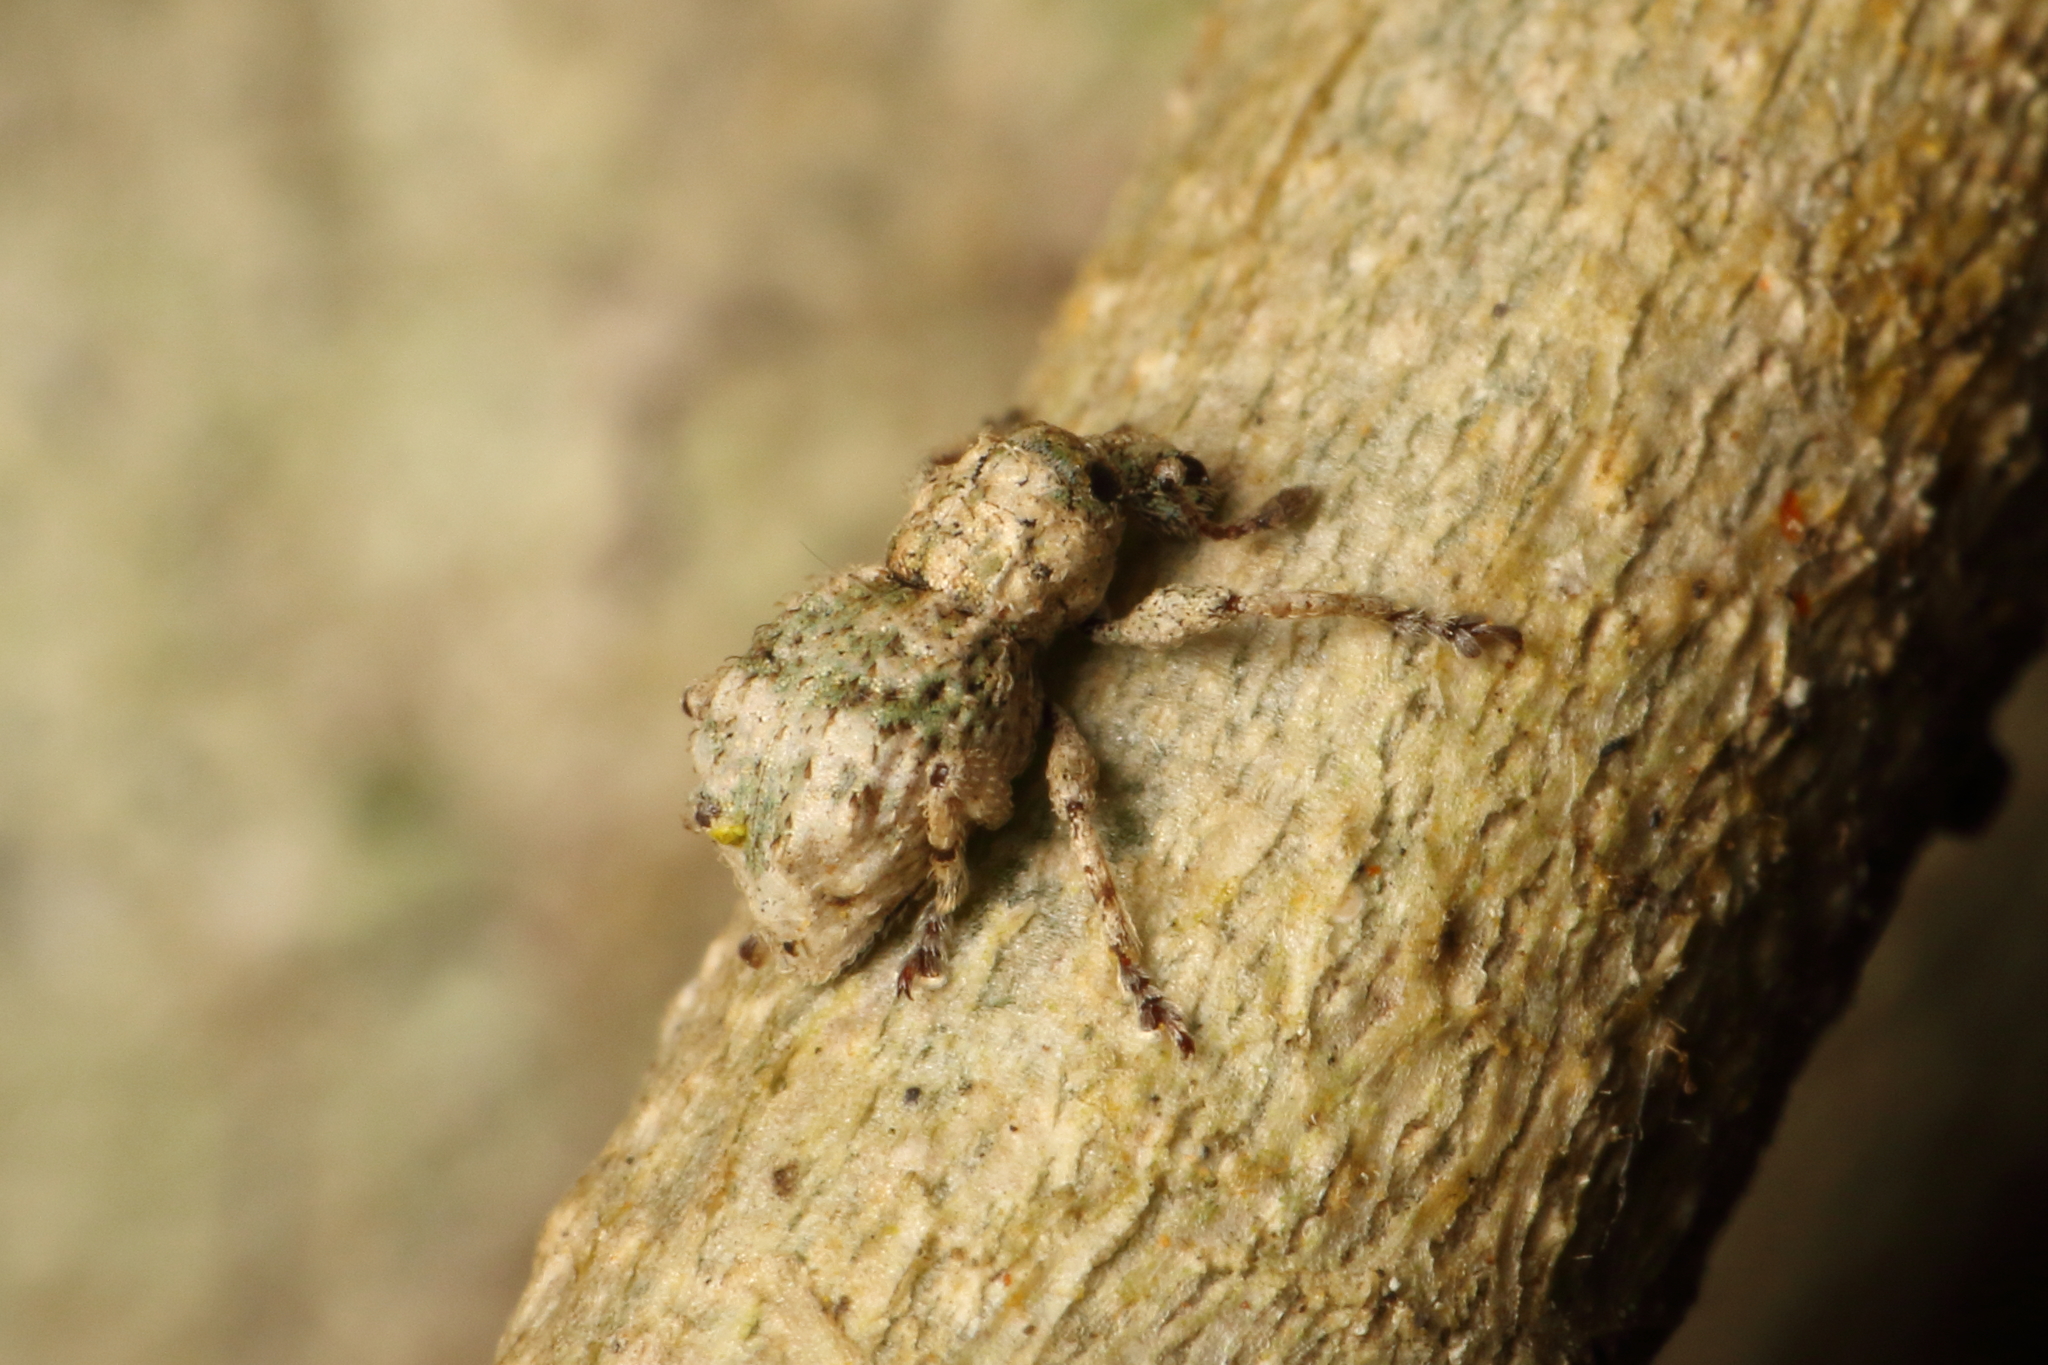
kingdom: Animalia
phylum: Arthropoda
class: Insecta
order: Coleoptera
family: Curculionidae
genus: Brachyolus
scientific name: Brachyolus punctatus
